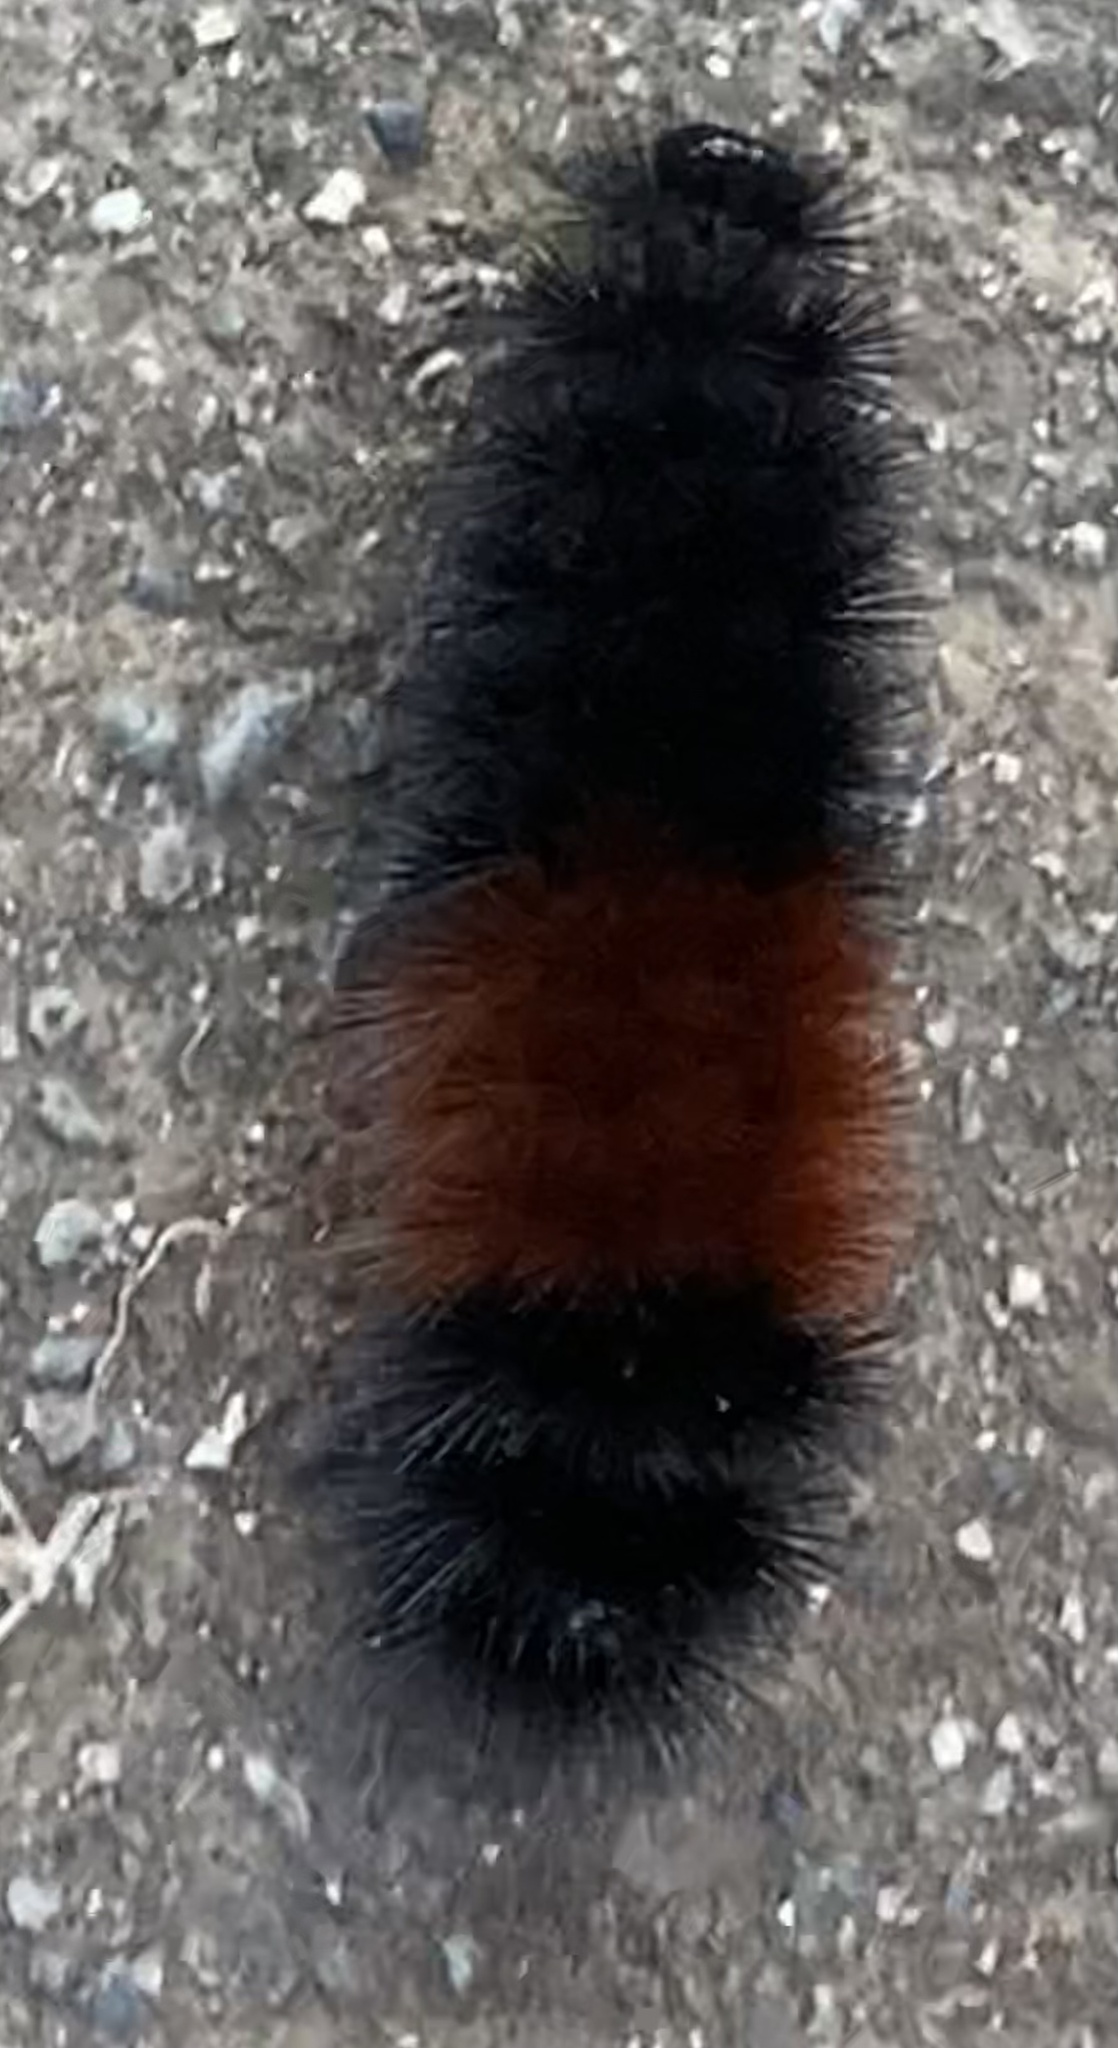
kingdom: Animalia
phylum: Arthropoda
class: Insecta
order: Lepidoptera
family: Erebidae
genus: Pyrrharctia
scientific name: Pyrrharctia isabella
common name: Isabella tiger moth
